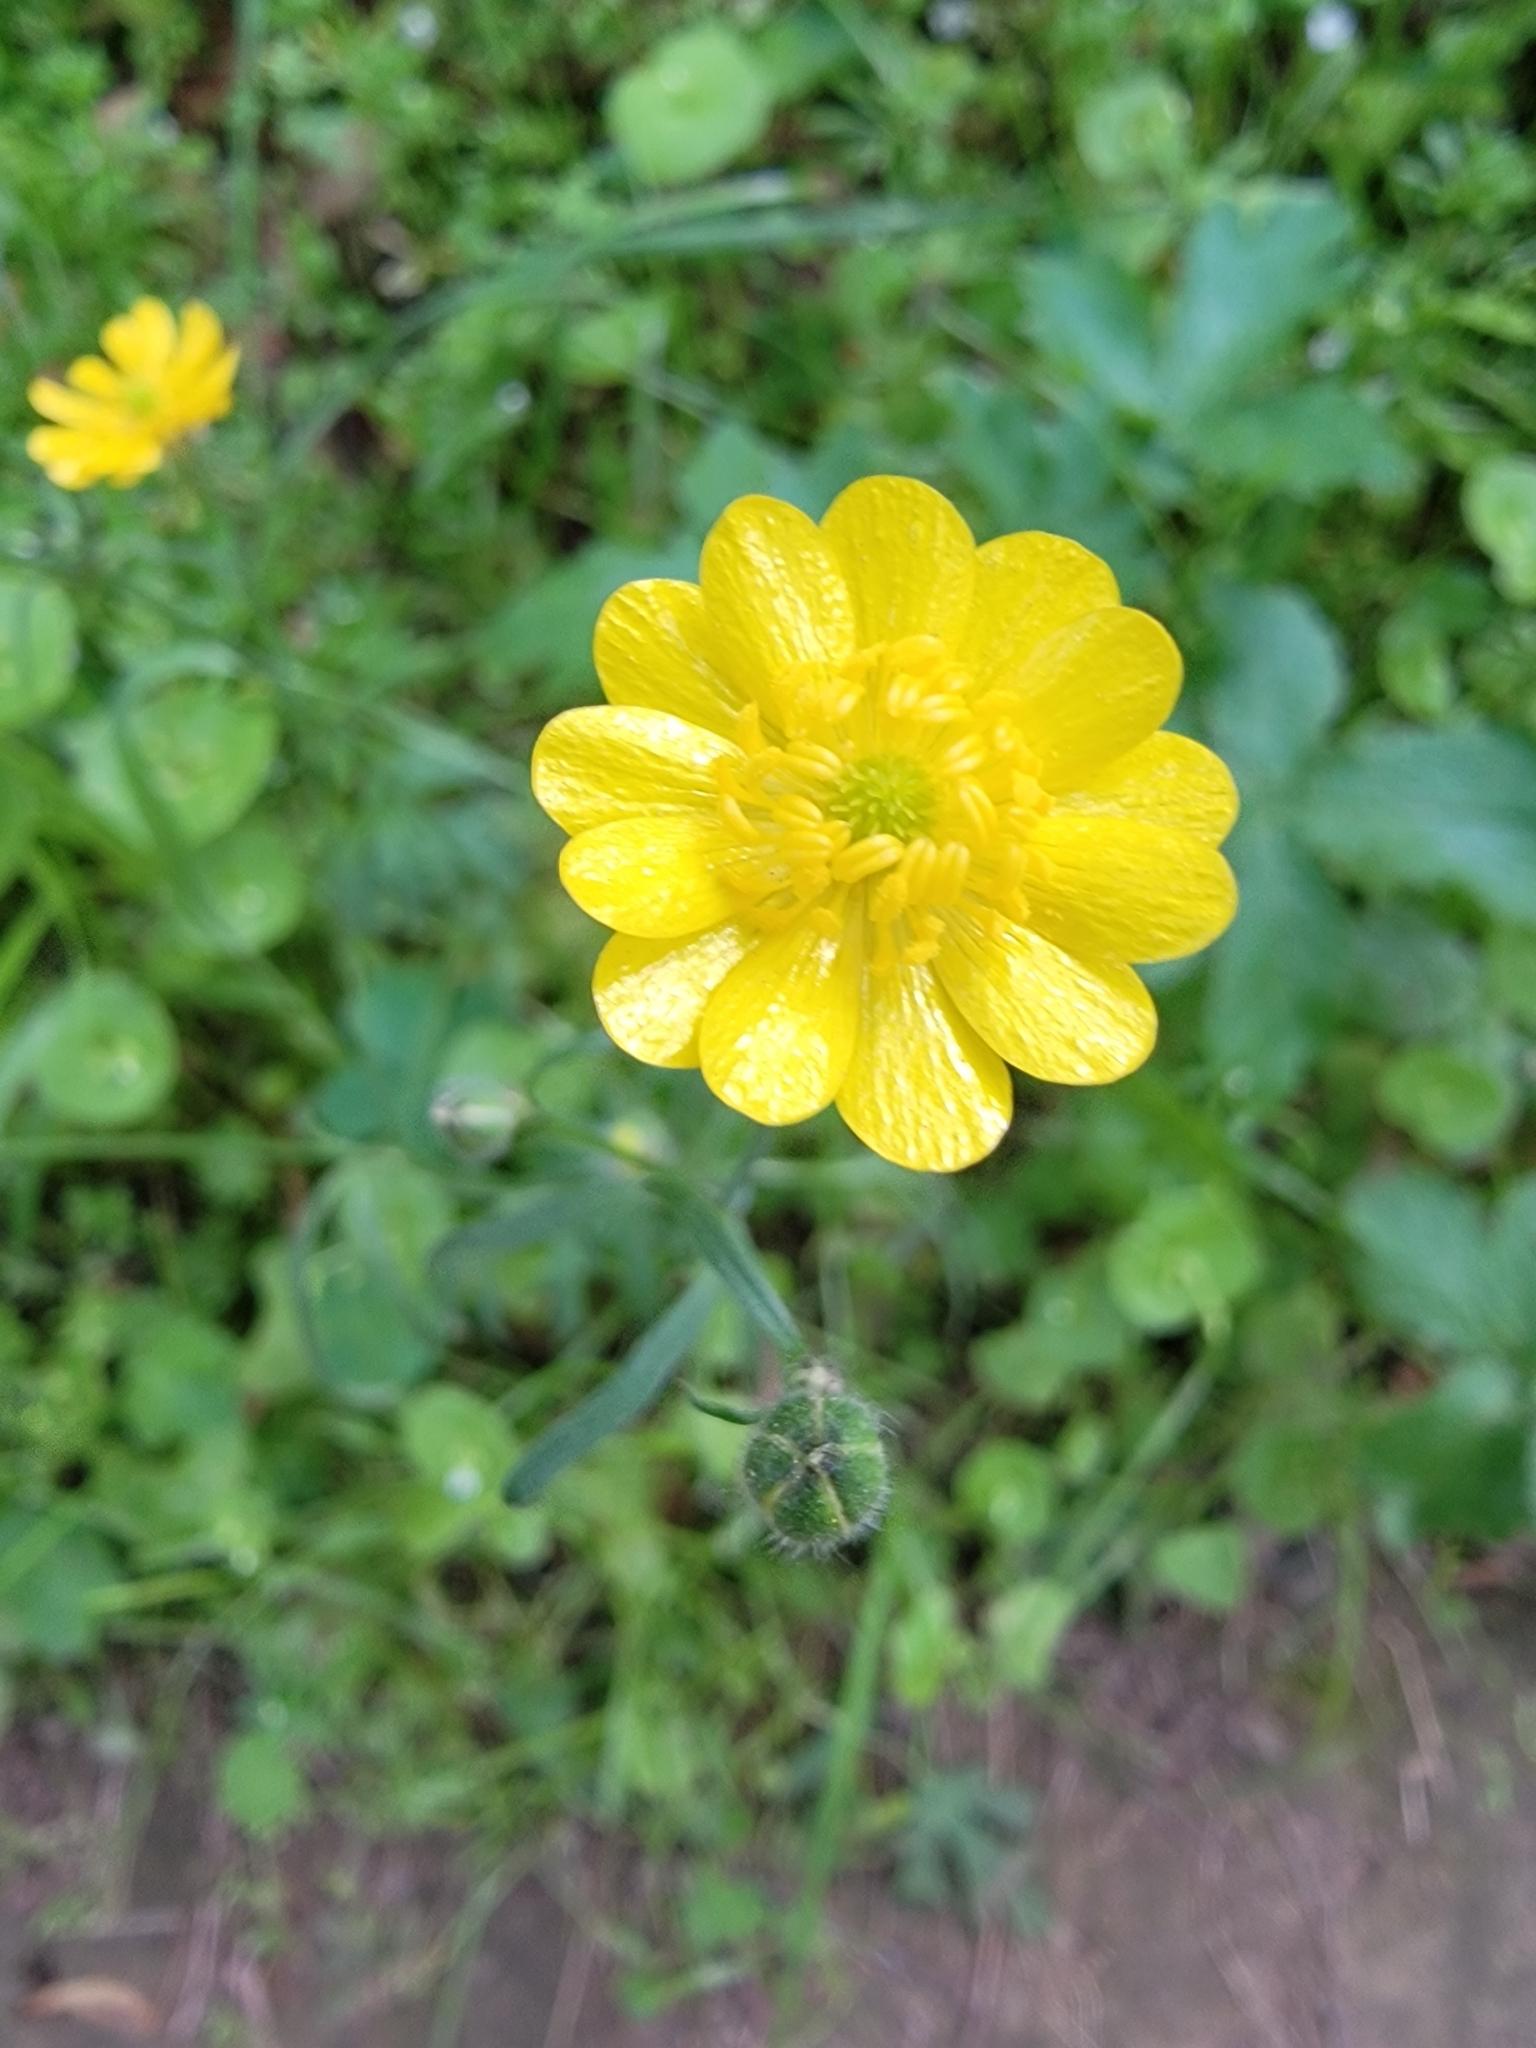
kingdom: Plantae
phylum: Tracheophyta
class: Magnoliopsida
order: Ranunculales
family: Ranunculaceae
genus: Ranunculus
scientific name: Ranunculus californicus
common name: California buttercup
